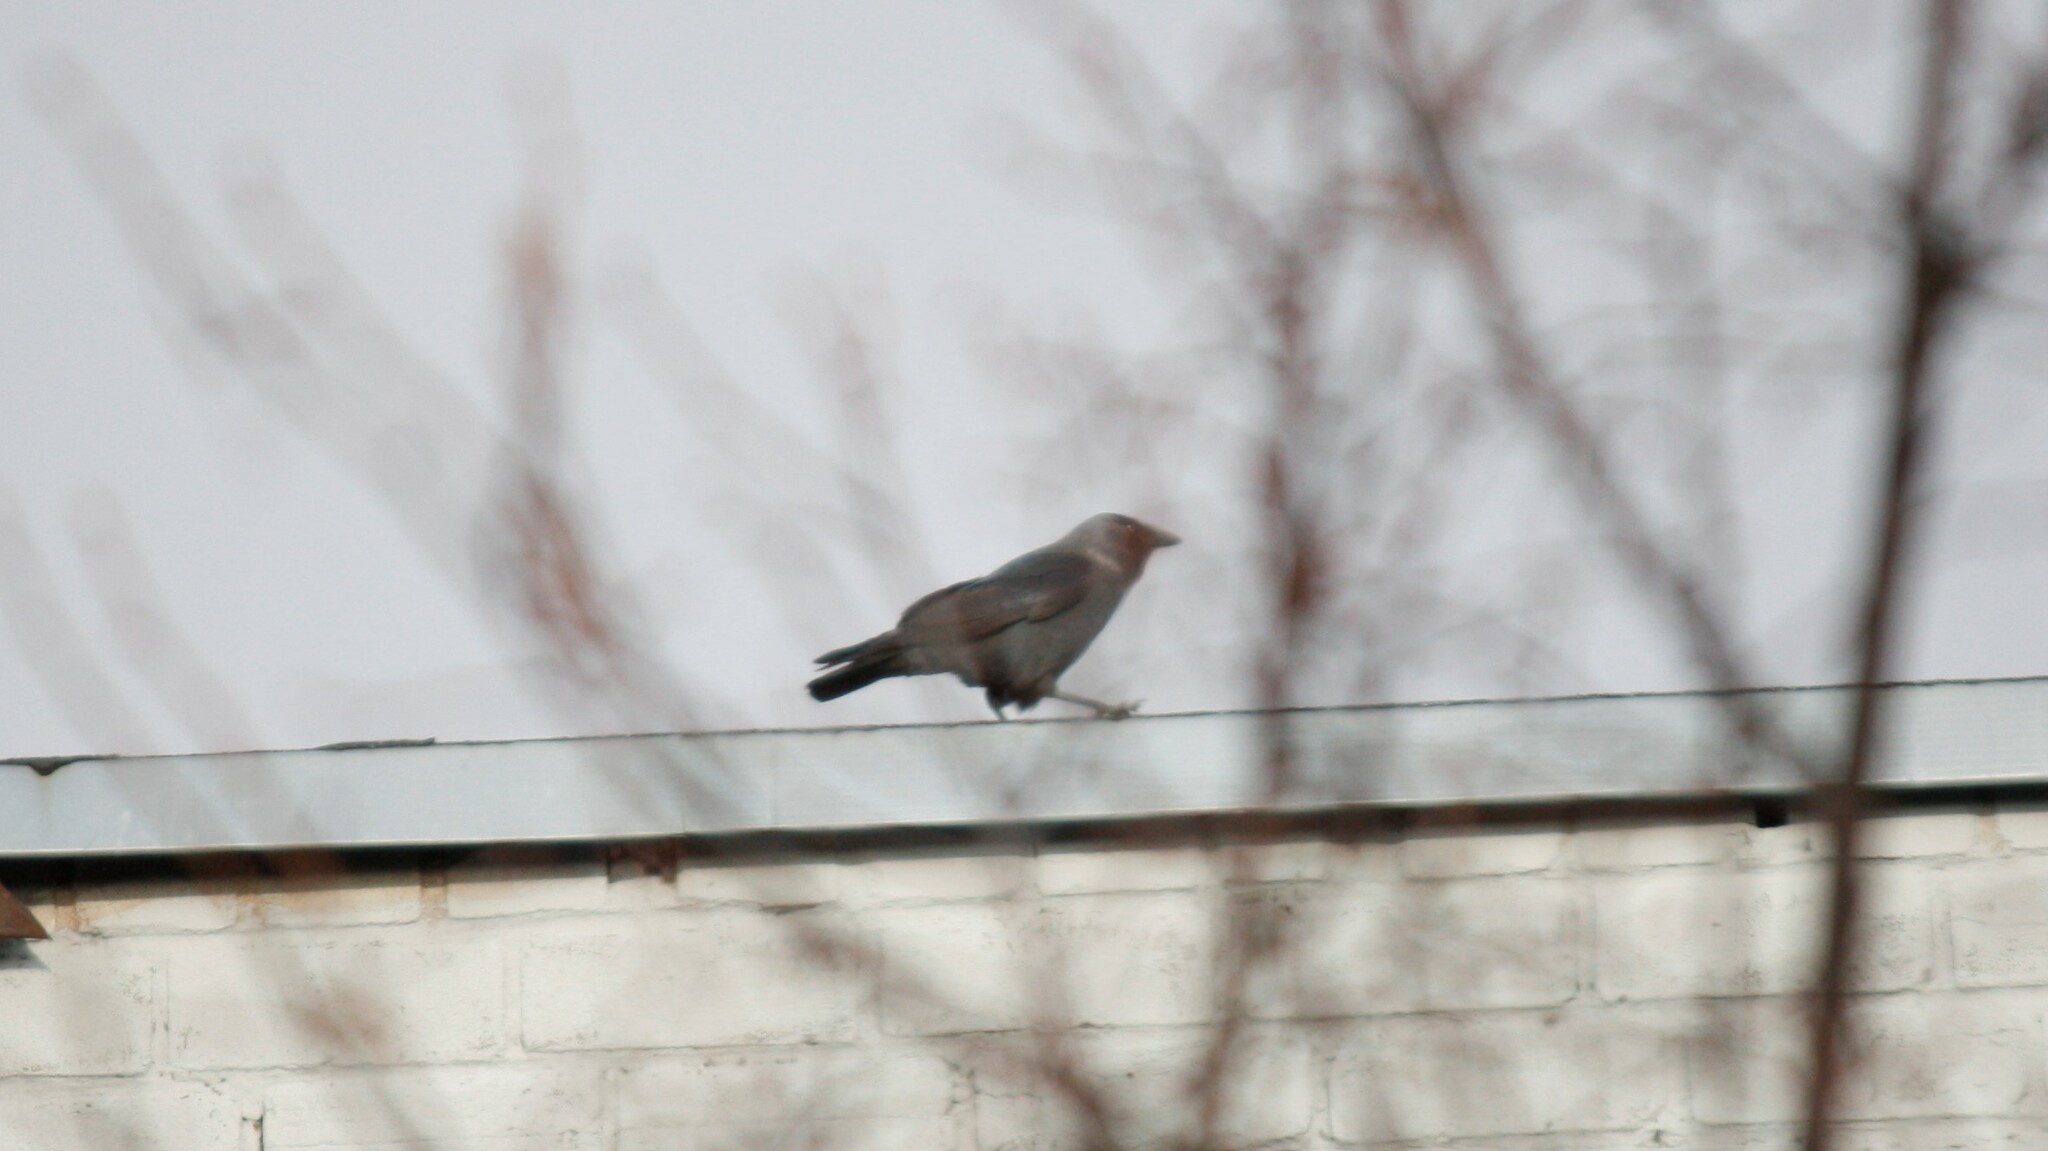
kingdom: Animalia
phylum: Chordata
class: Aves
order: Passeriformes
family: Corvidae
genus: Coloeus
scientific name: Coloeus monedula
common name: Western jackdaw
